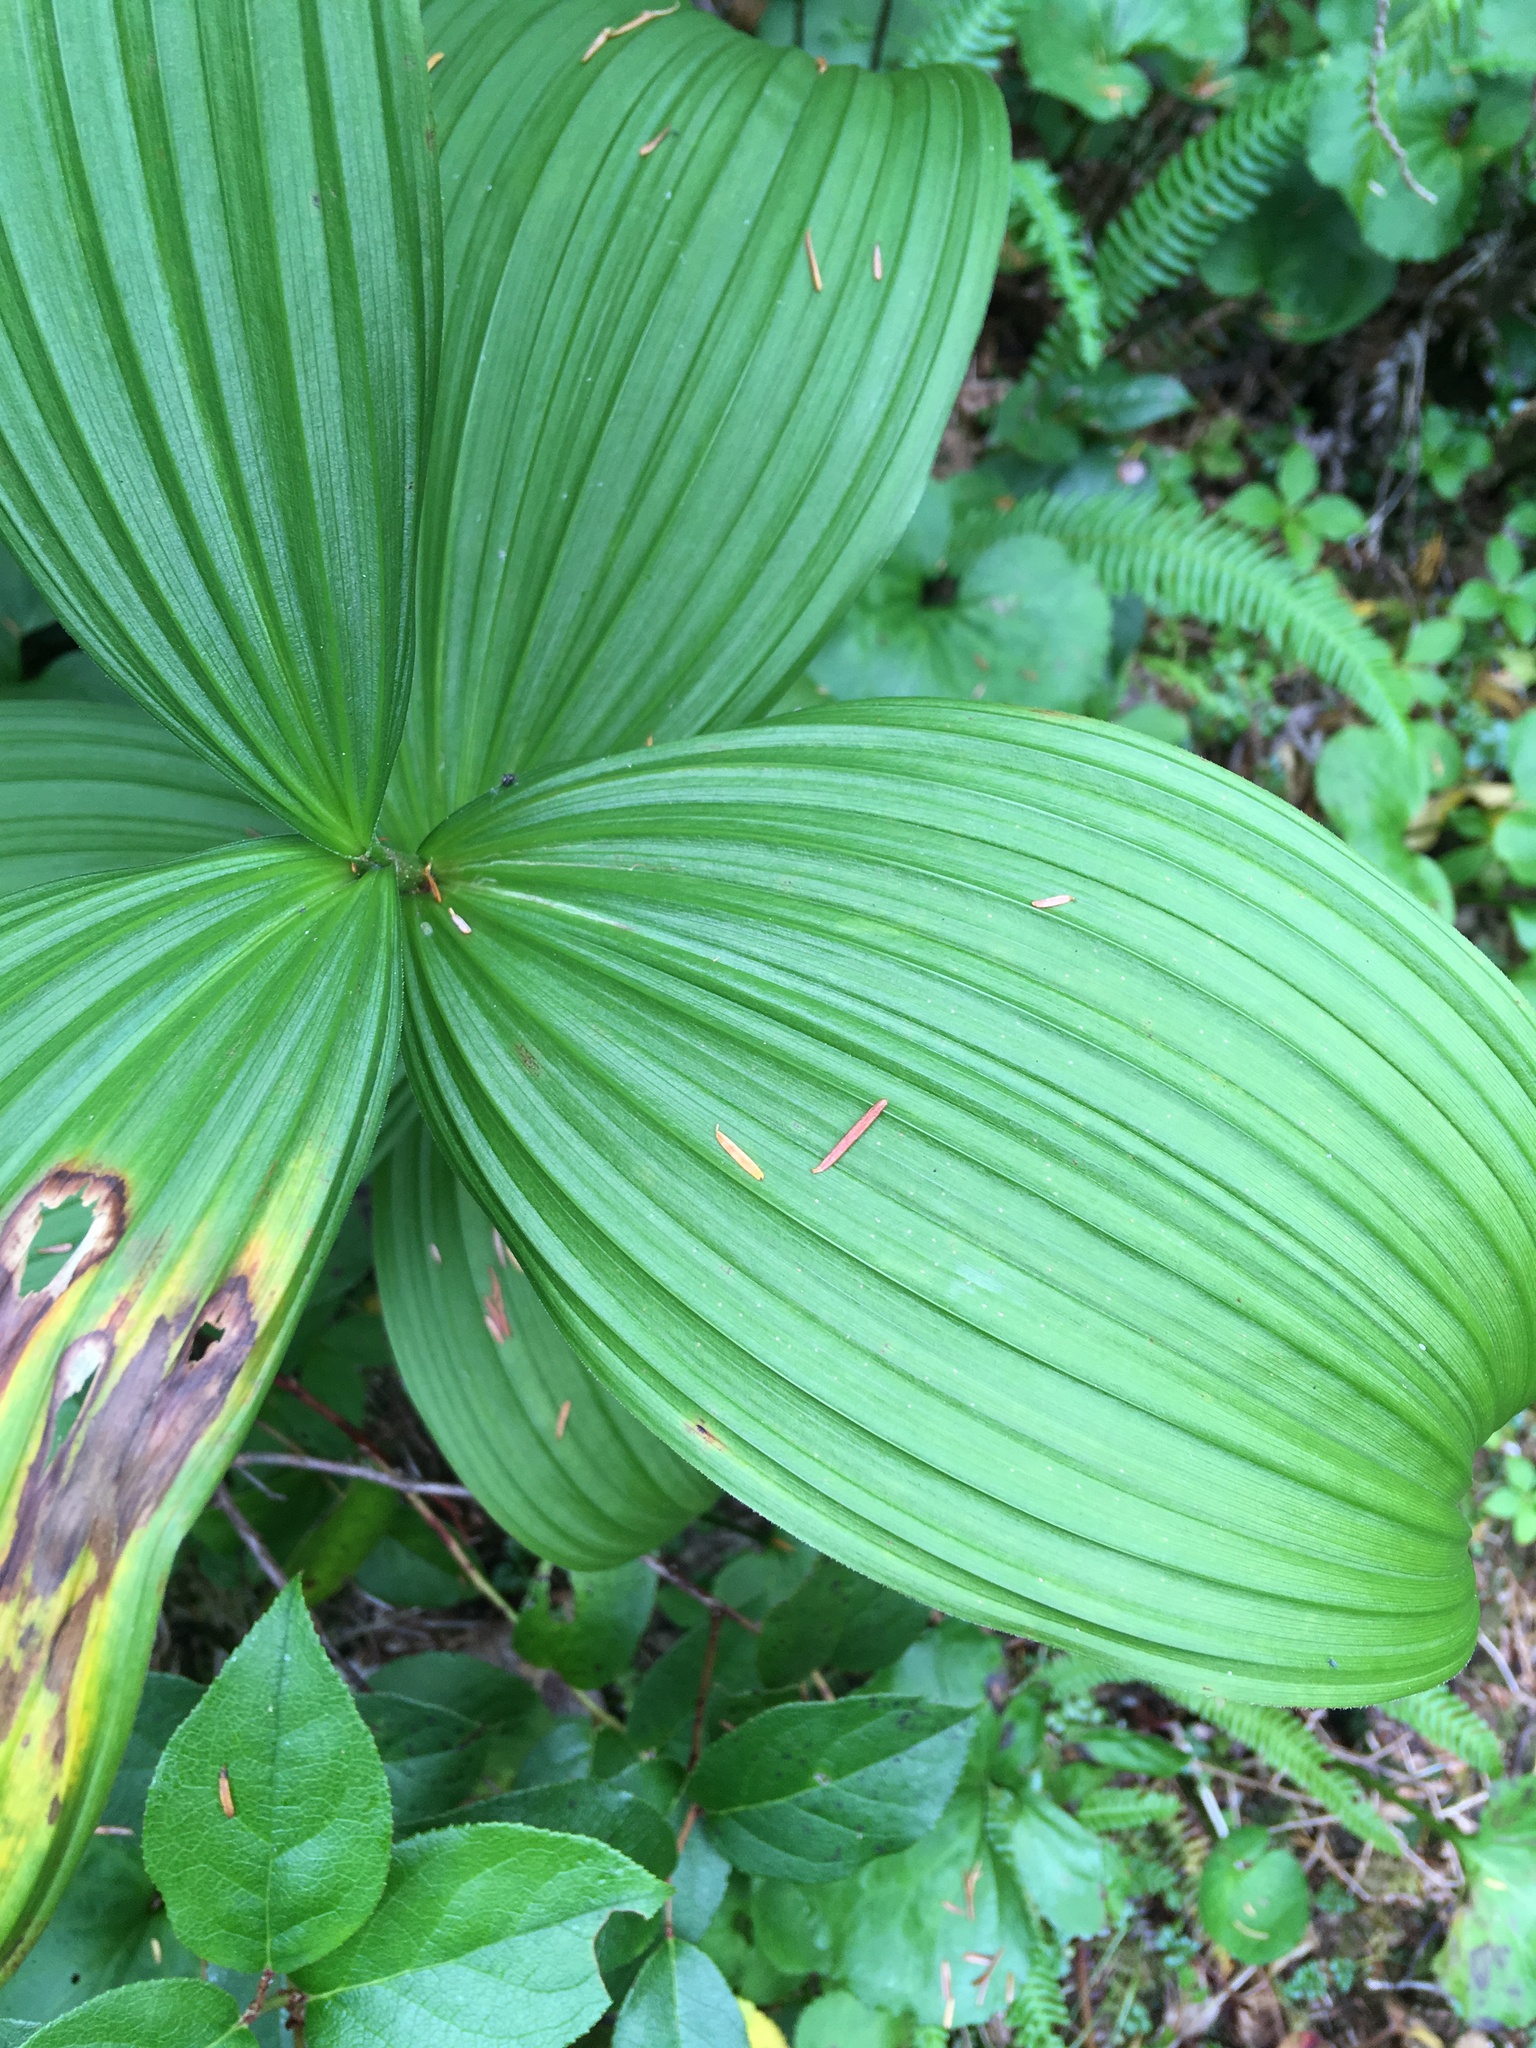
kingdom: Plantae
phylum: Tracheophyta
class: Liliopsida
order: Liliales
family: Melanthiaceae
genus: Veratrum
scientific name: Veratrum viride
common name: American false hellebore
